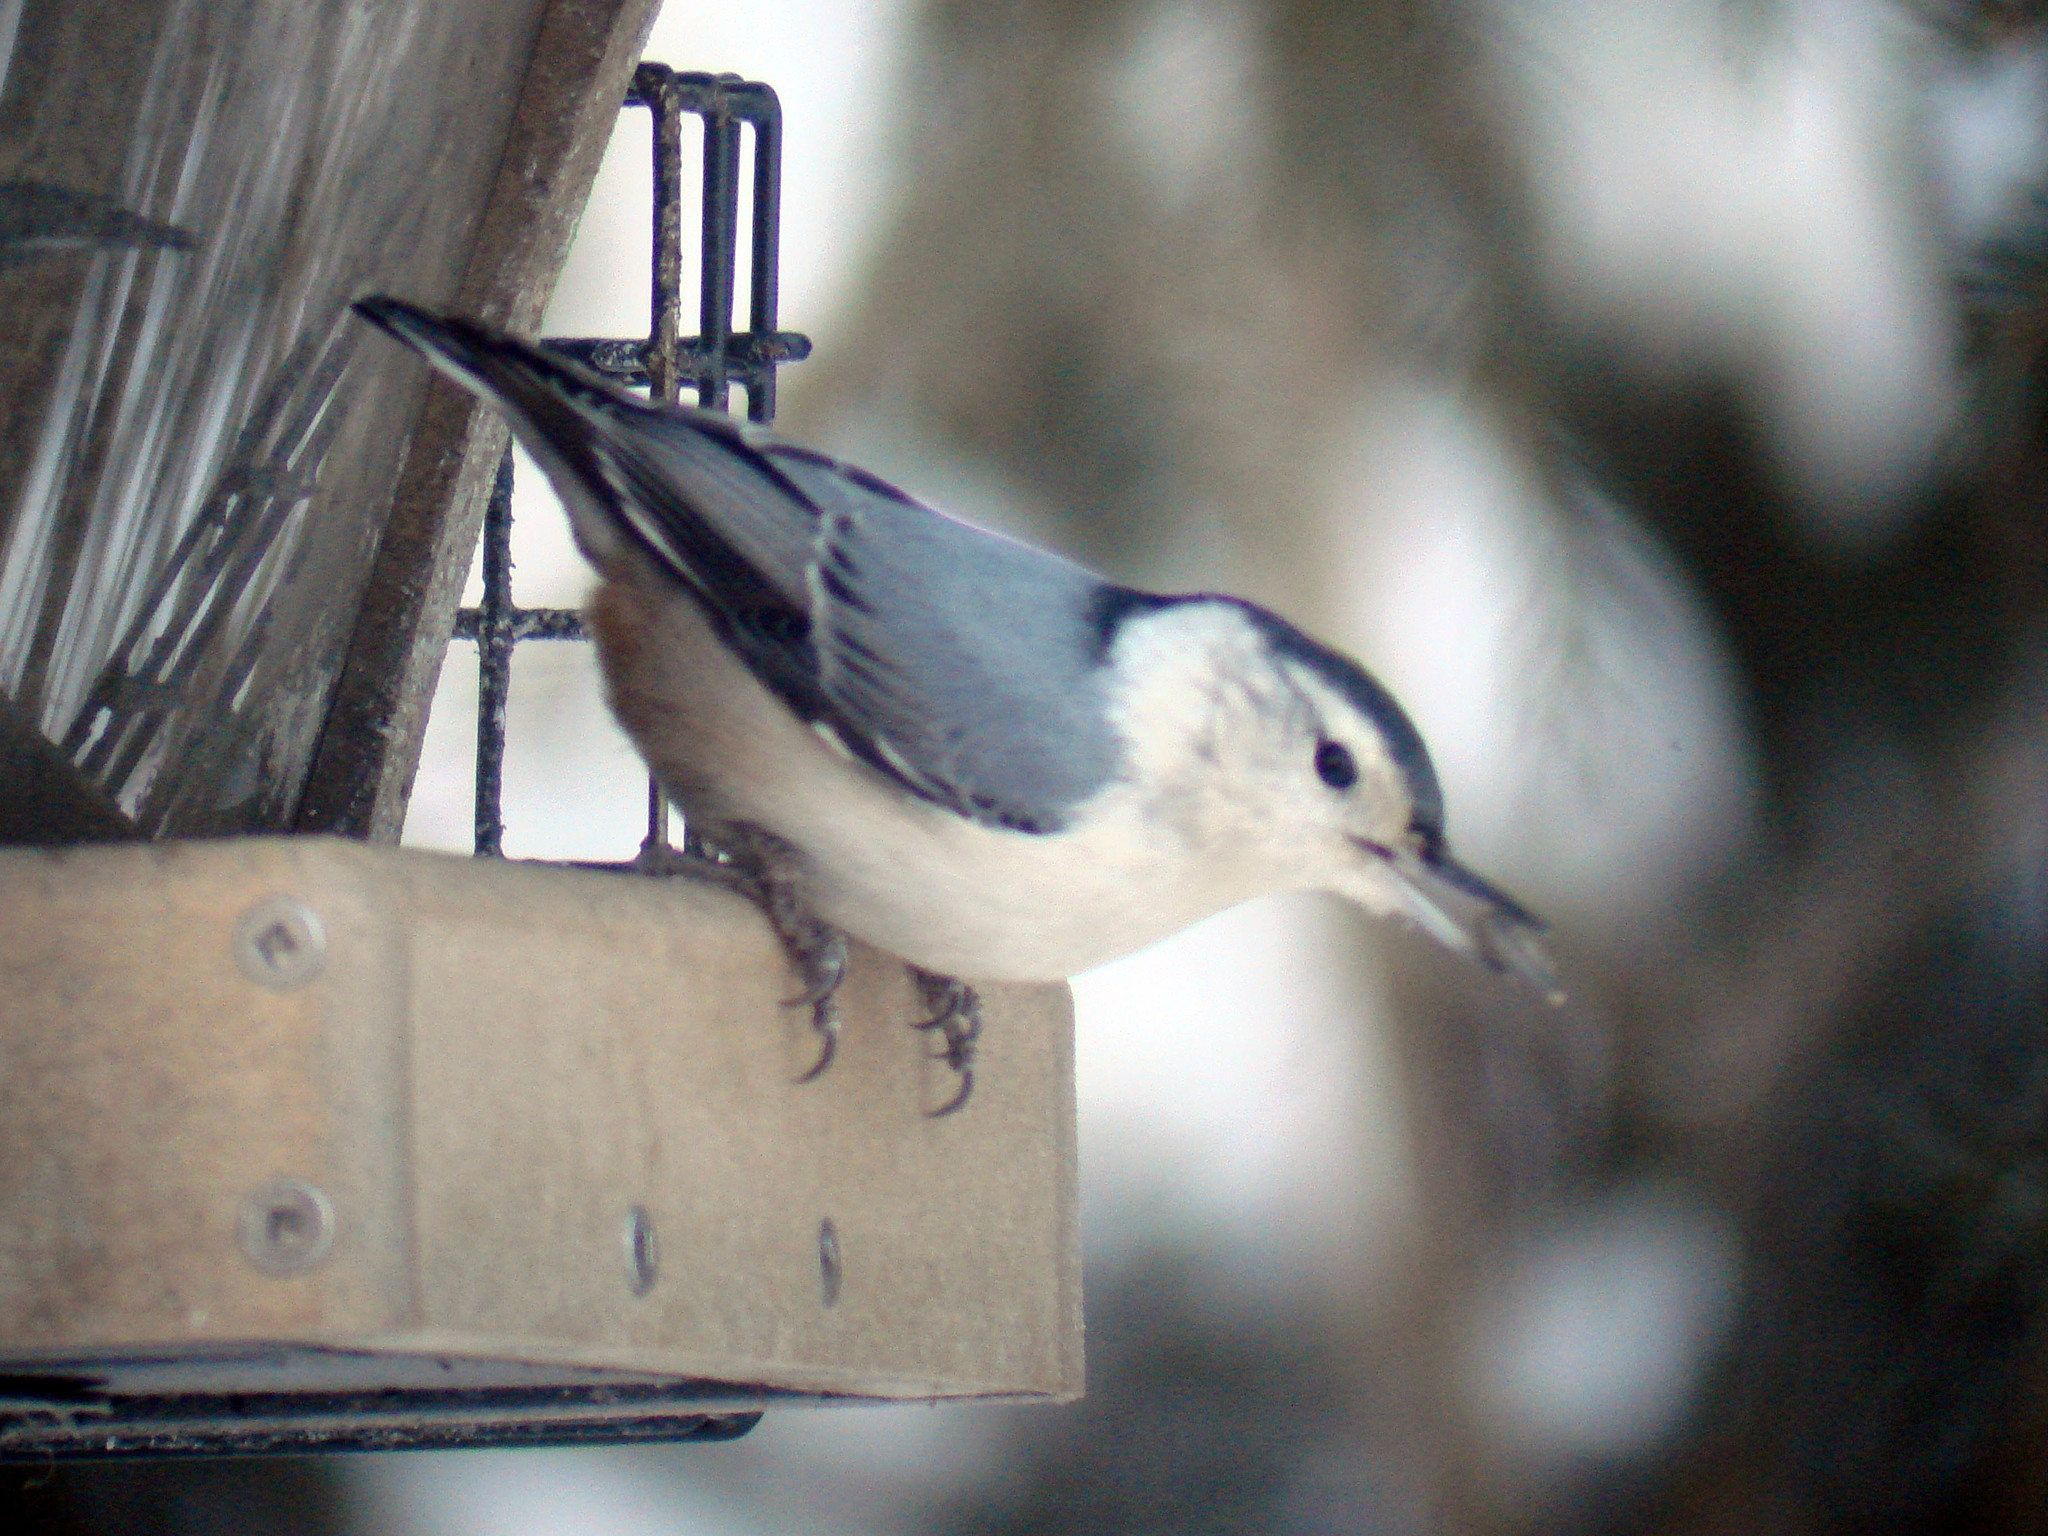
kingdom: Animalia
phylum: Chordata
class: Aves
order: Passeriformes
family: Sittidae
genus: Sitta
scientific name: Sitta carolinensis
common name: White-breasted nuthatch
